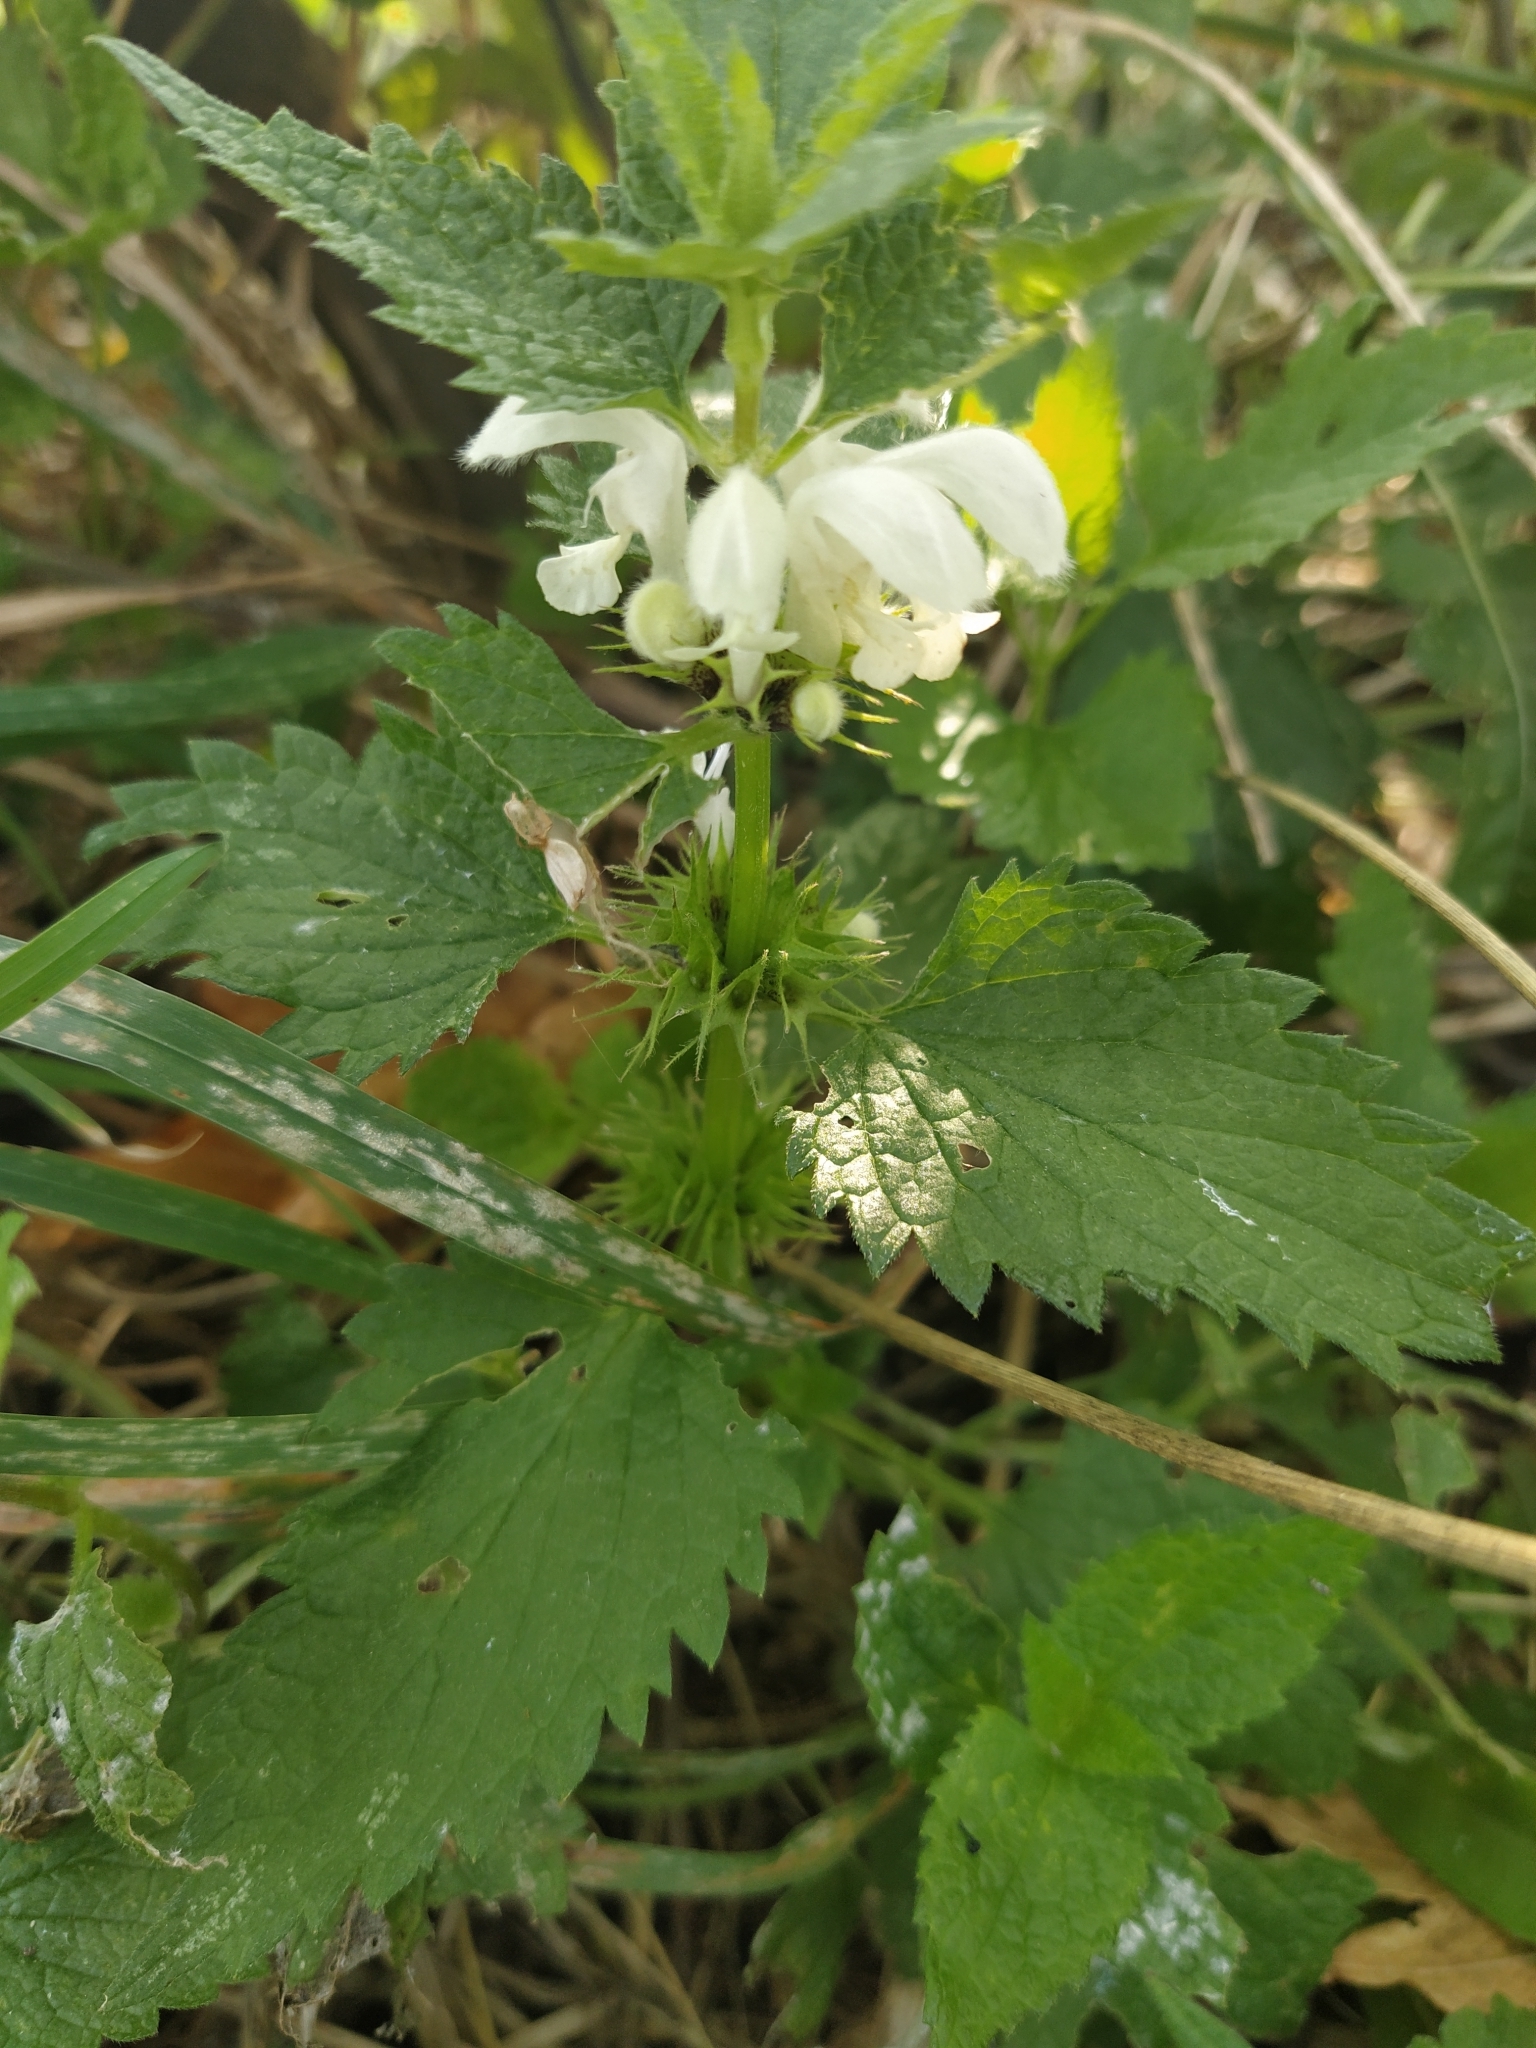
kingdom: Plantae
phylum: Tracheophyta
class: Magnoliopsida
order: Lamiales
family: Lamiaceae
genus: Lamium
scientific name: Lamium album
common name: White dead-nettle
